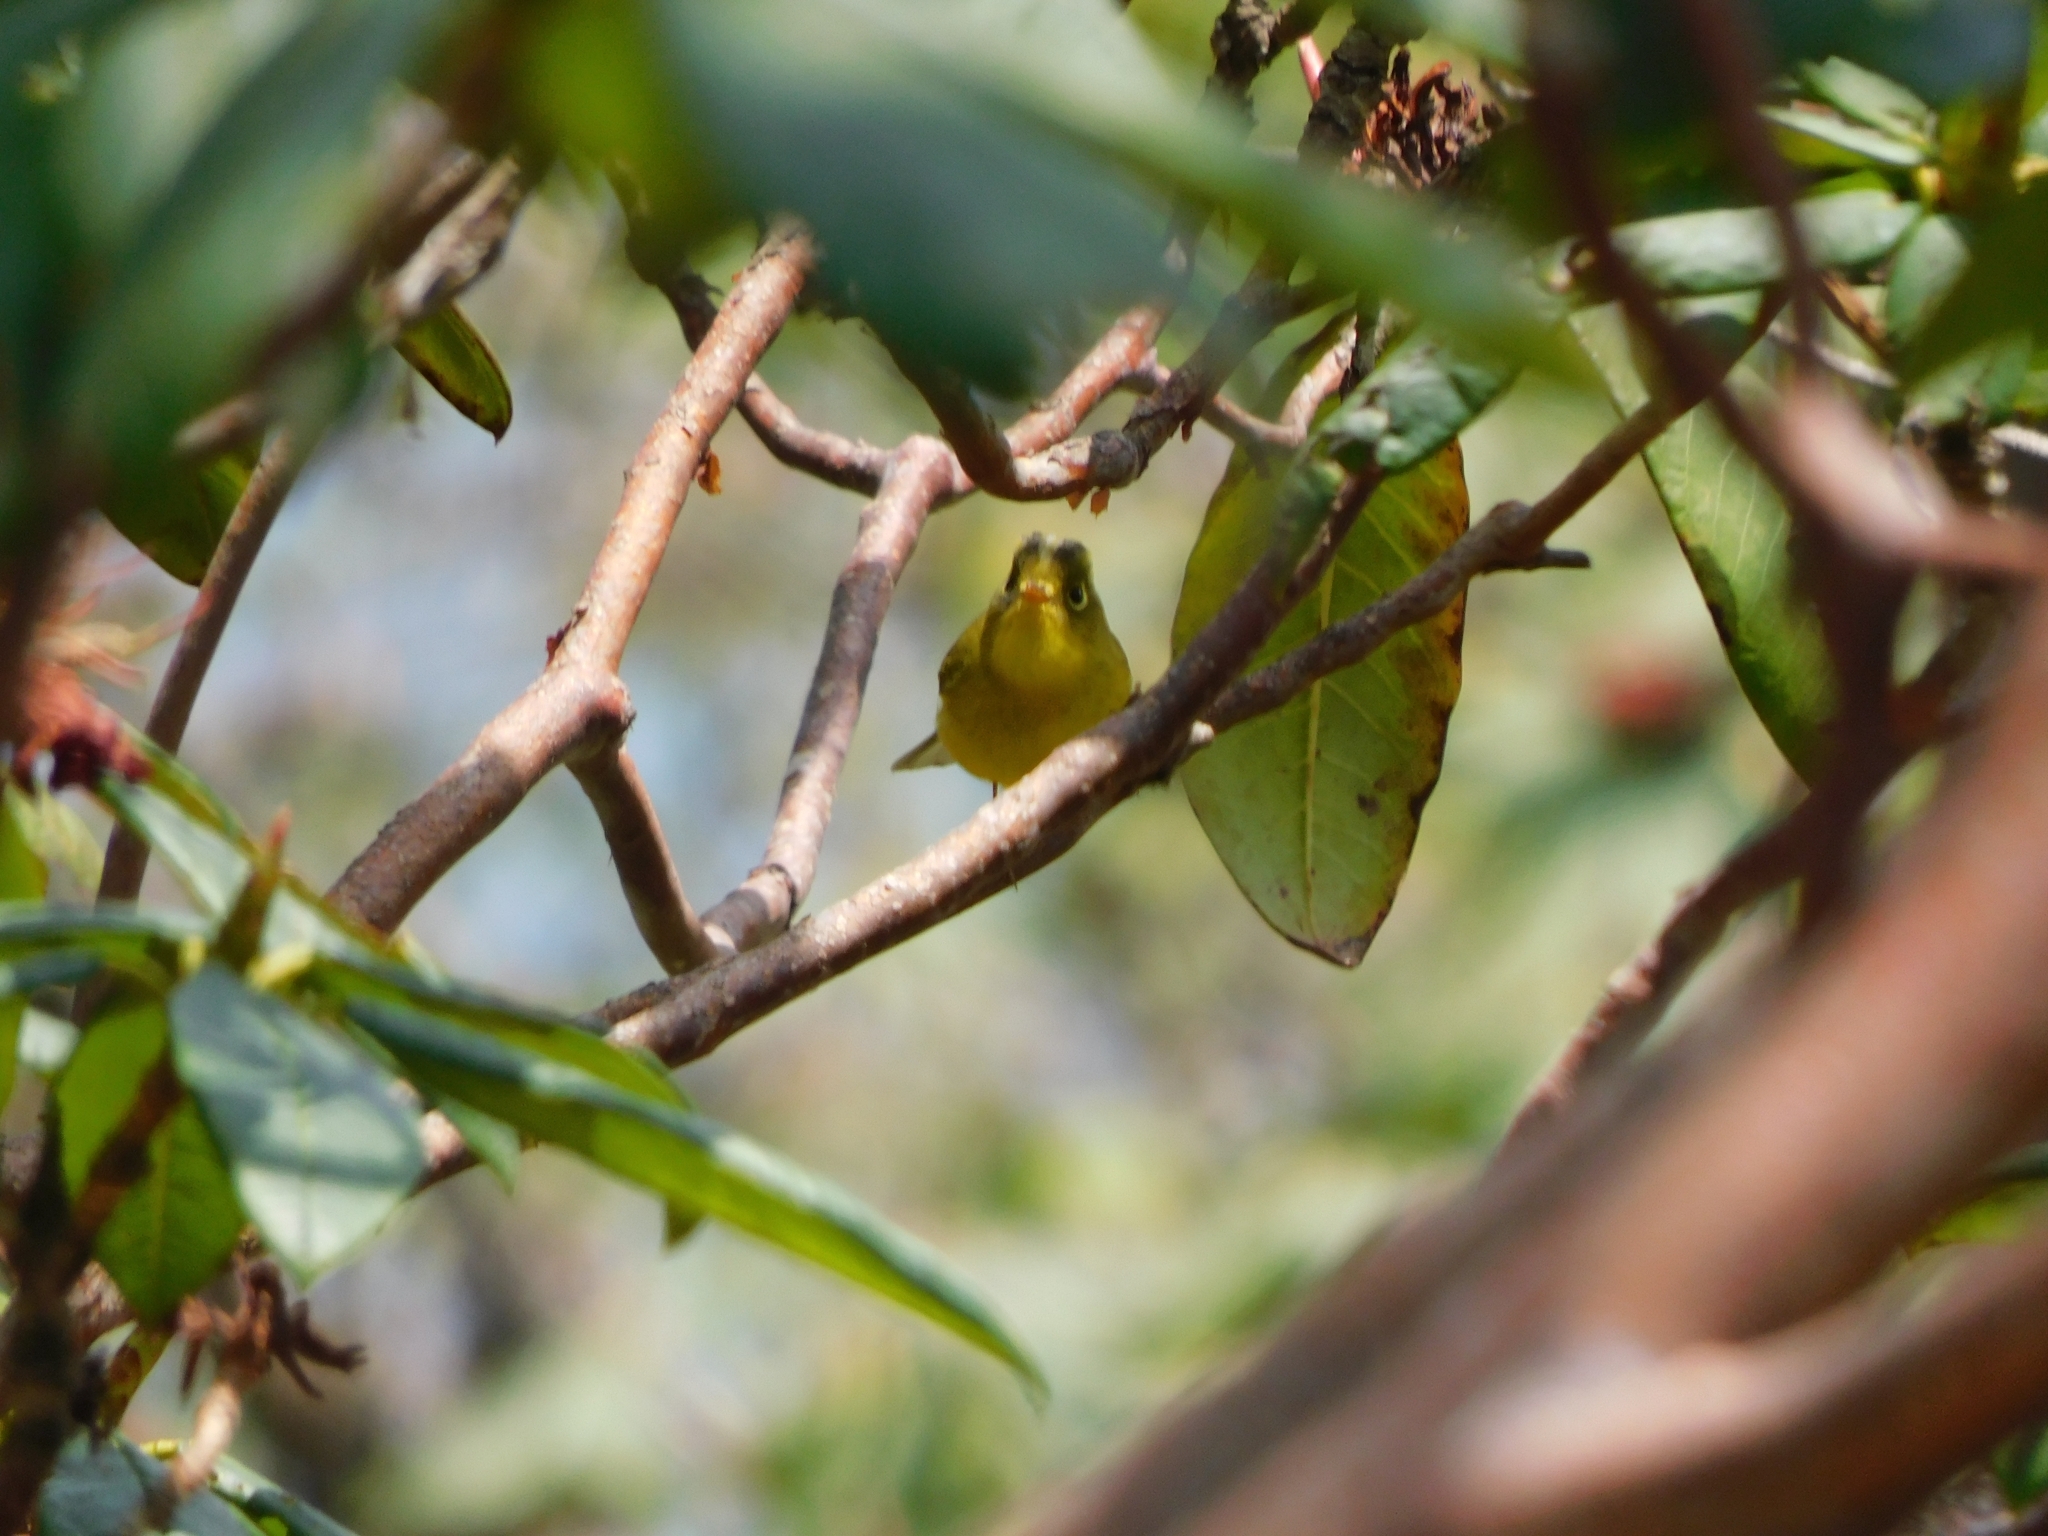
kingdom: Animalia
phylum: Chordata
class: Aves
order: Passeriformes
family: Phylloscopidae
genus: Seicercus
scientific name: Seicercus whistleri
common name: Whistler's warbler
